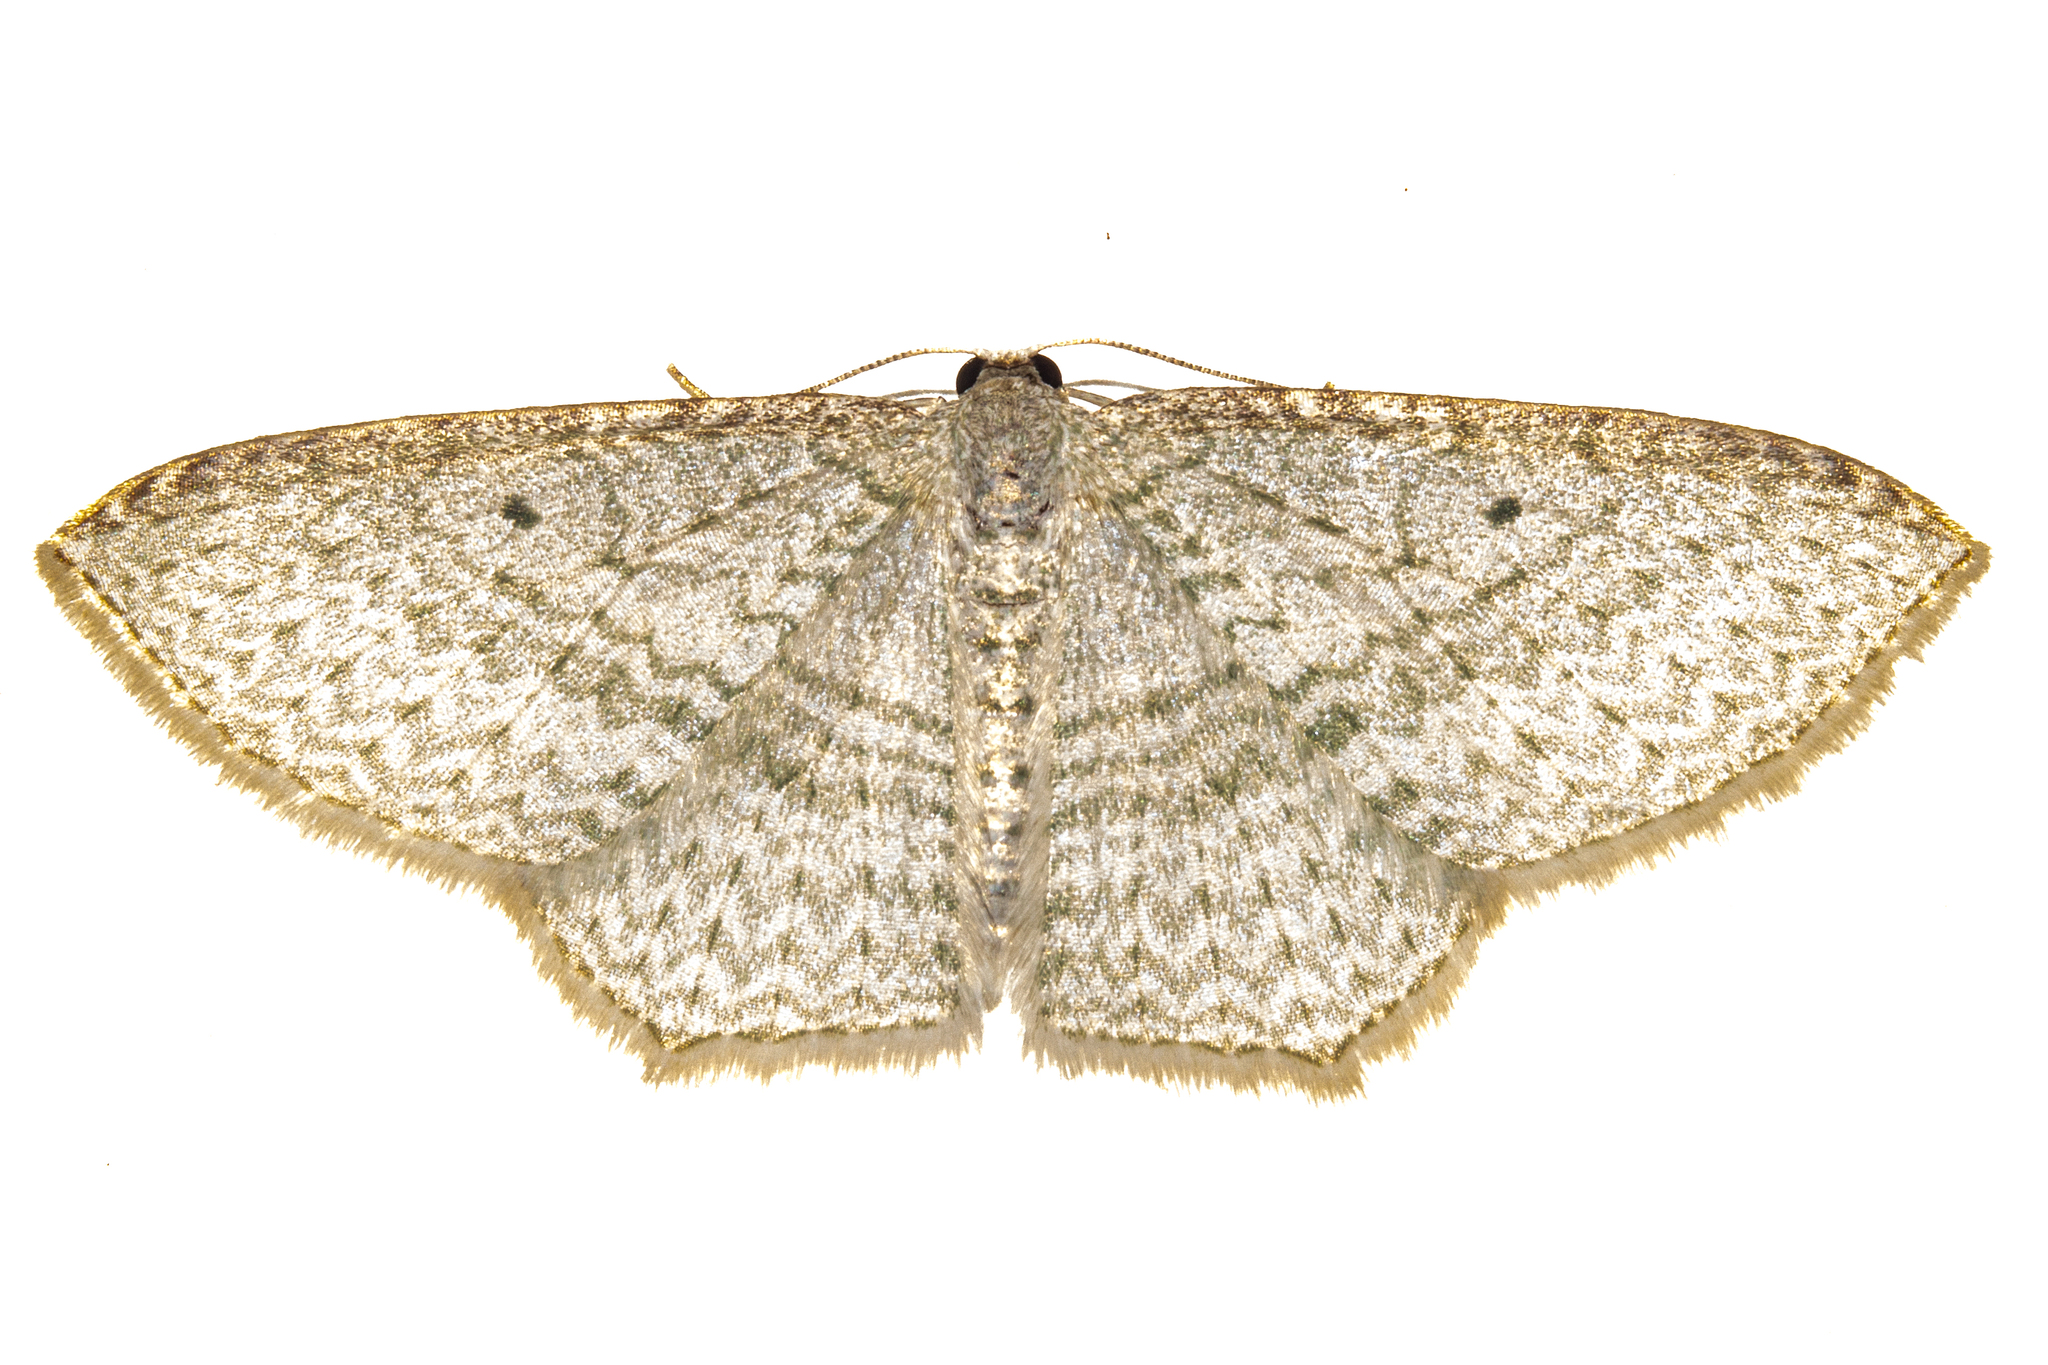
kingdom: Animalia
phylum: Arthropoda
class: Insecta
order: Lepidoptera
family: Geometridae
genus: Poecilasthena
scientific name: Poecilasthena pulchraria
